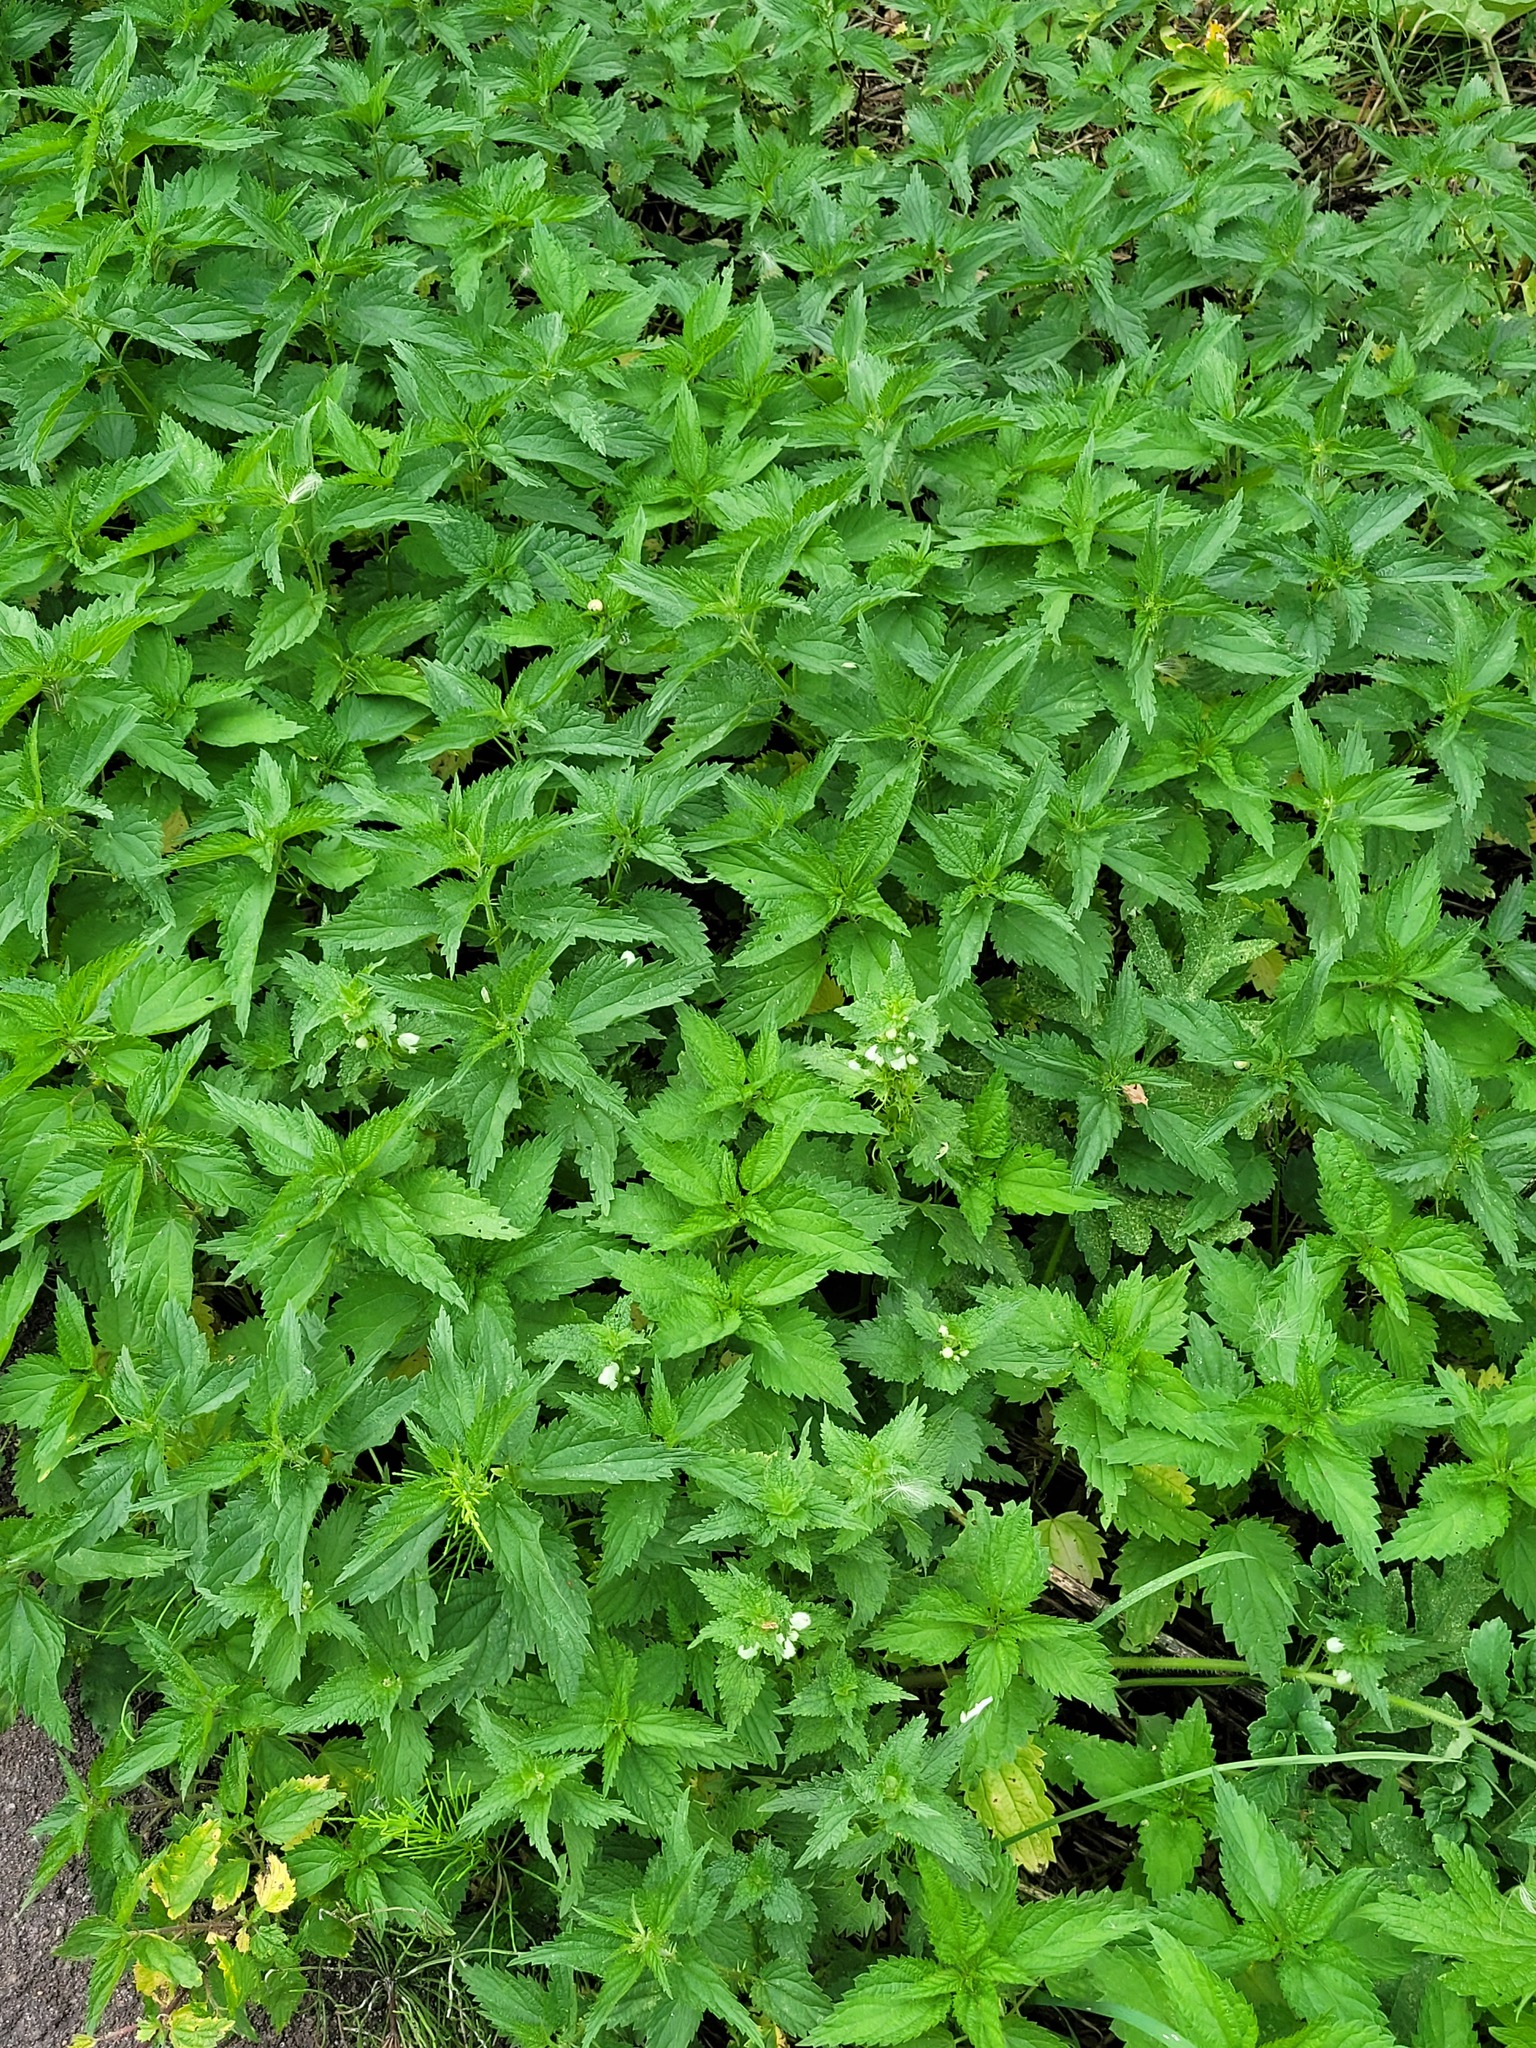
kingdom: Plantae
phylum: Tracheophyta
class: Magnoliopsida
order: Lamiales
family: Lamiaceae
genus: Lamium
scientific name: Lamium album
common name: White dead-nettle
